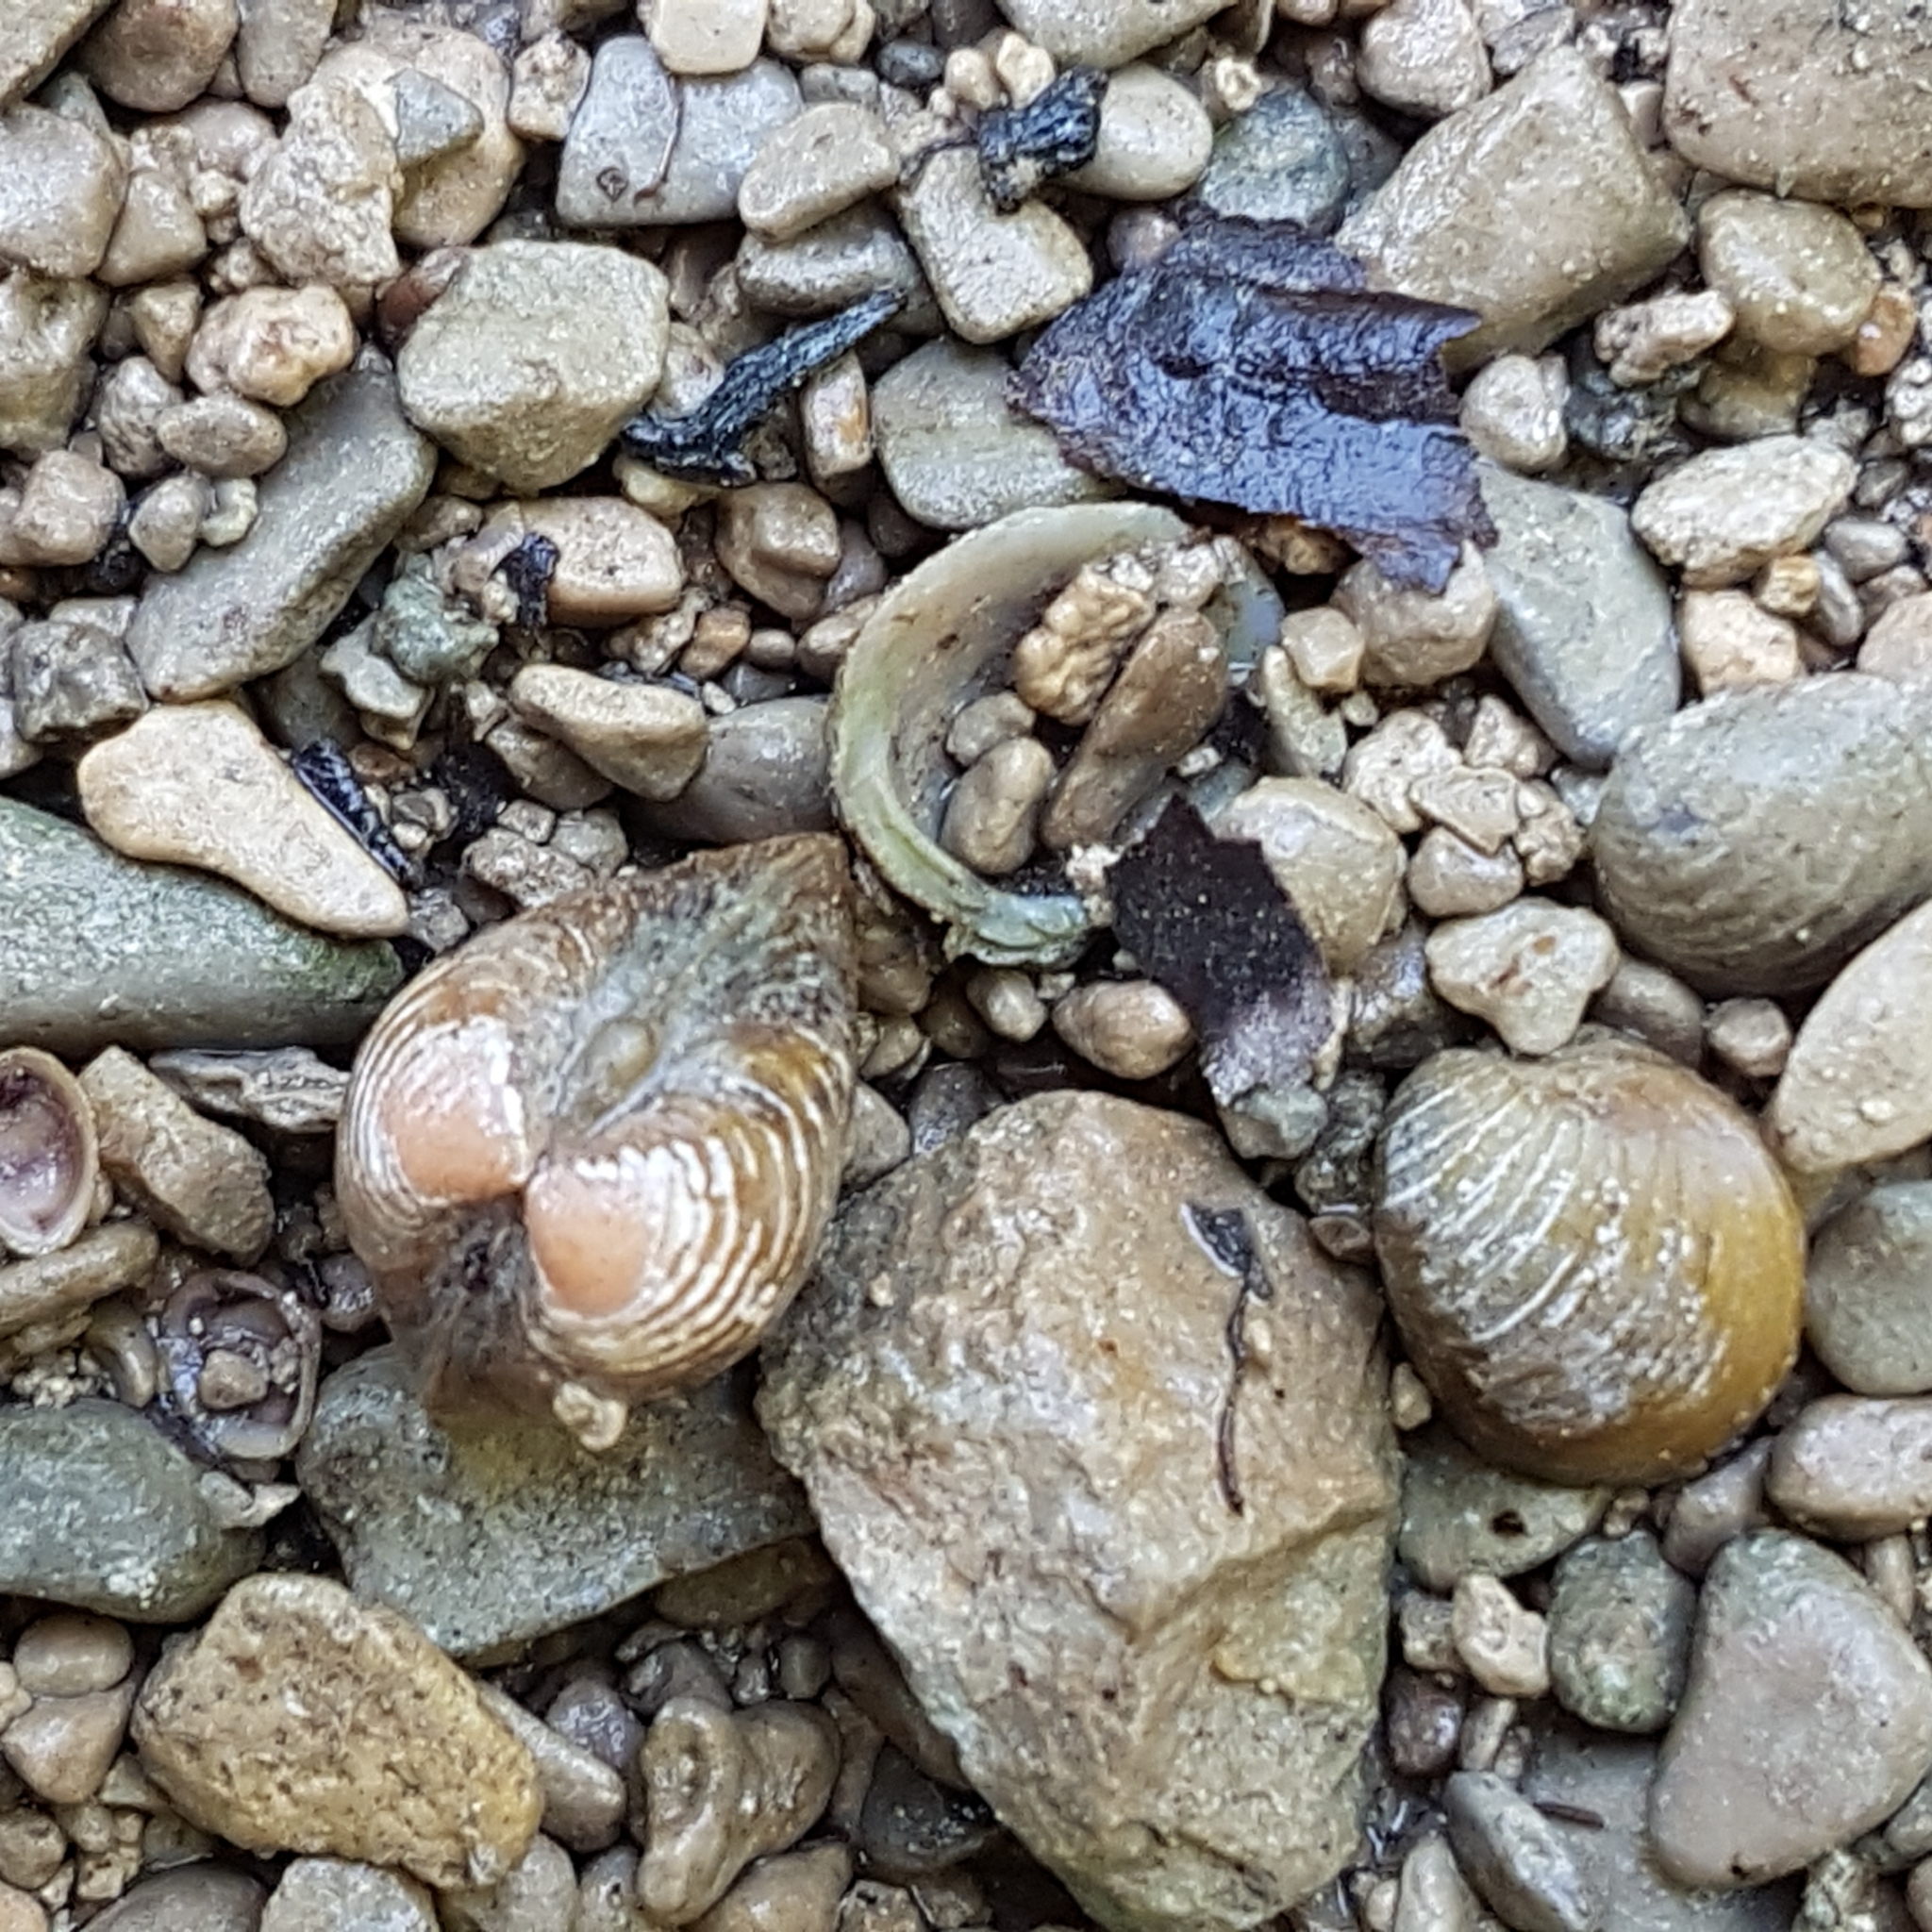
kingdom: Animalia
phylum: Mollusca
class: Bivalvia
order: Venerida
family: Cyrenidae
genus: Corbicula
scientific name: Corbicula fluminea
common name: Asian clam
